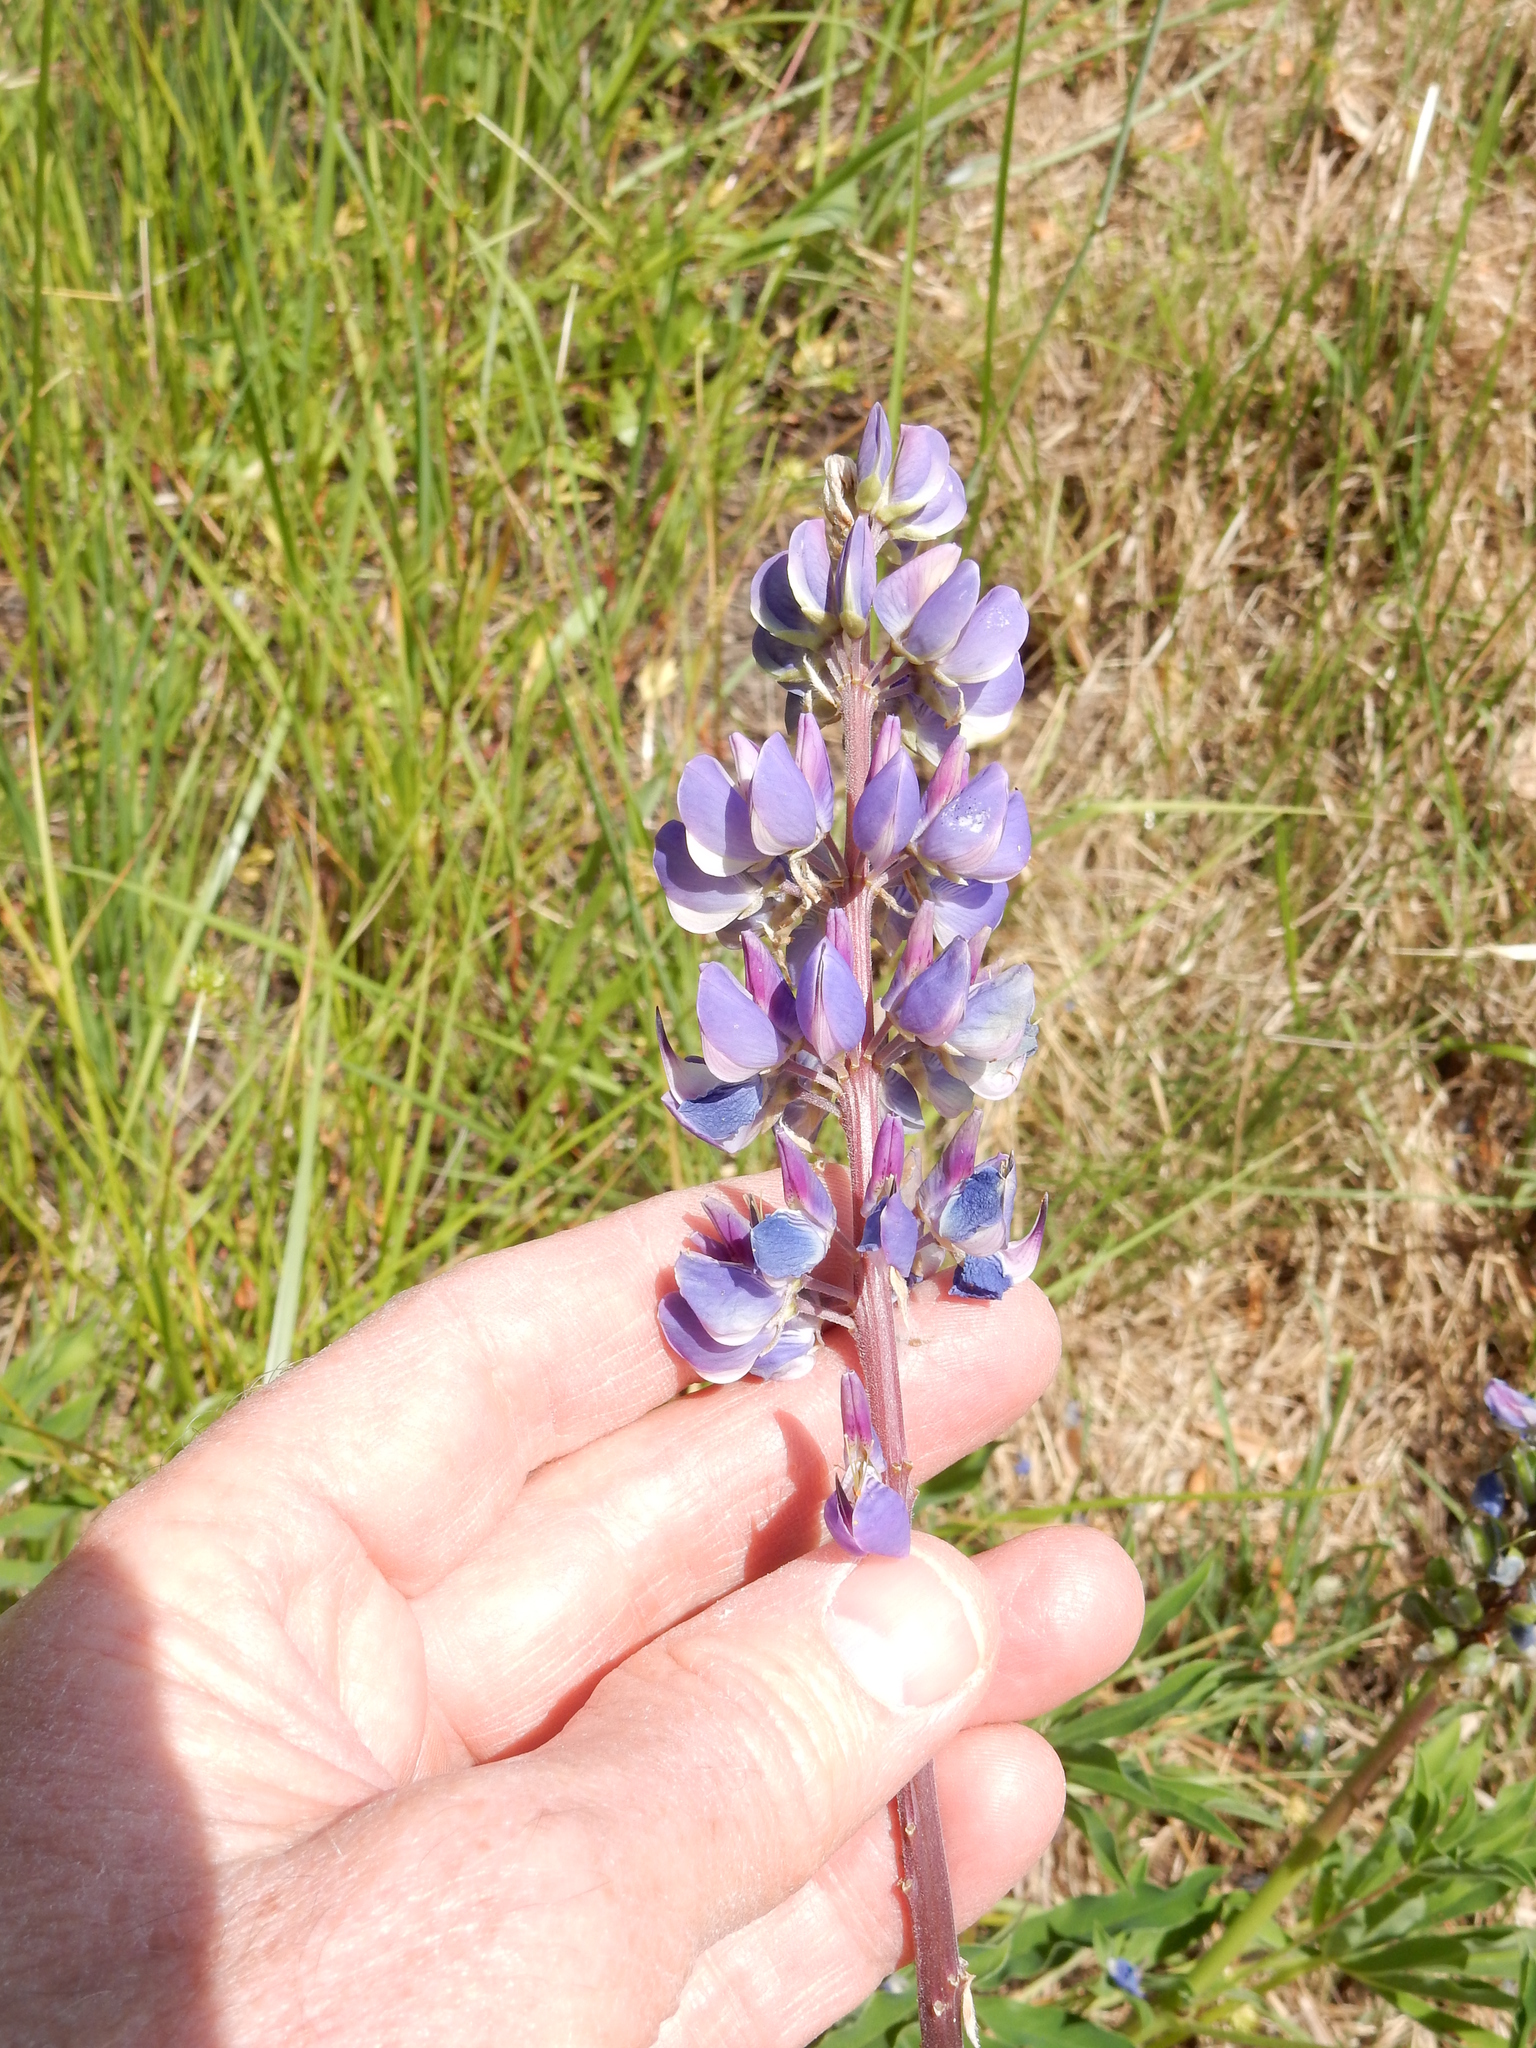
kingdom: Plantae
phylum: Tracheophyta
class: Magnoliopsida
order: Fabales
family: Fabaceae
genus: Lupinus
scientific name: Lupinus polyphyllus
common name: Garden lupin
